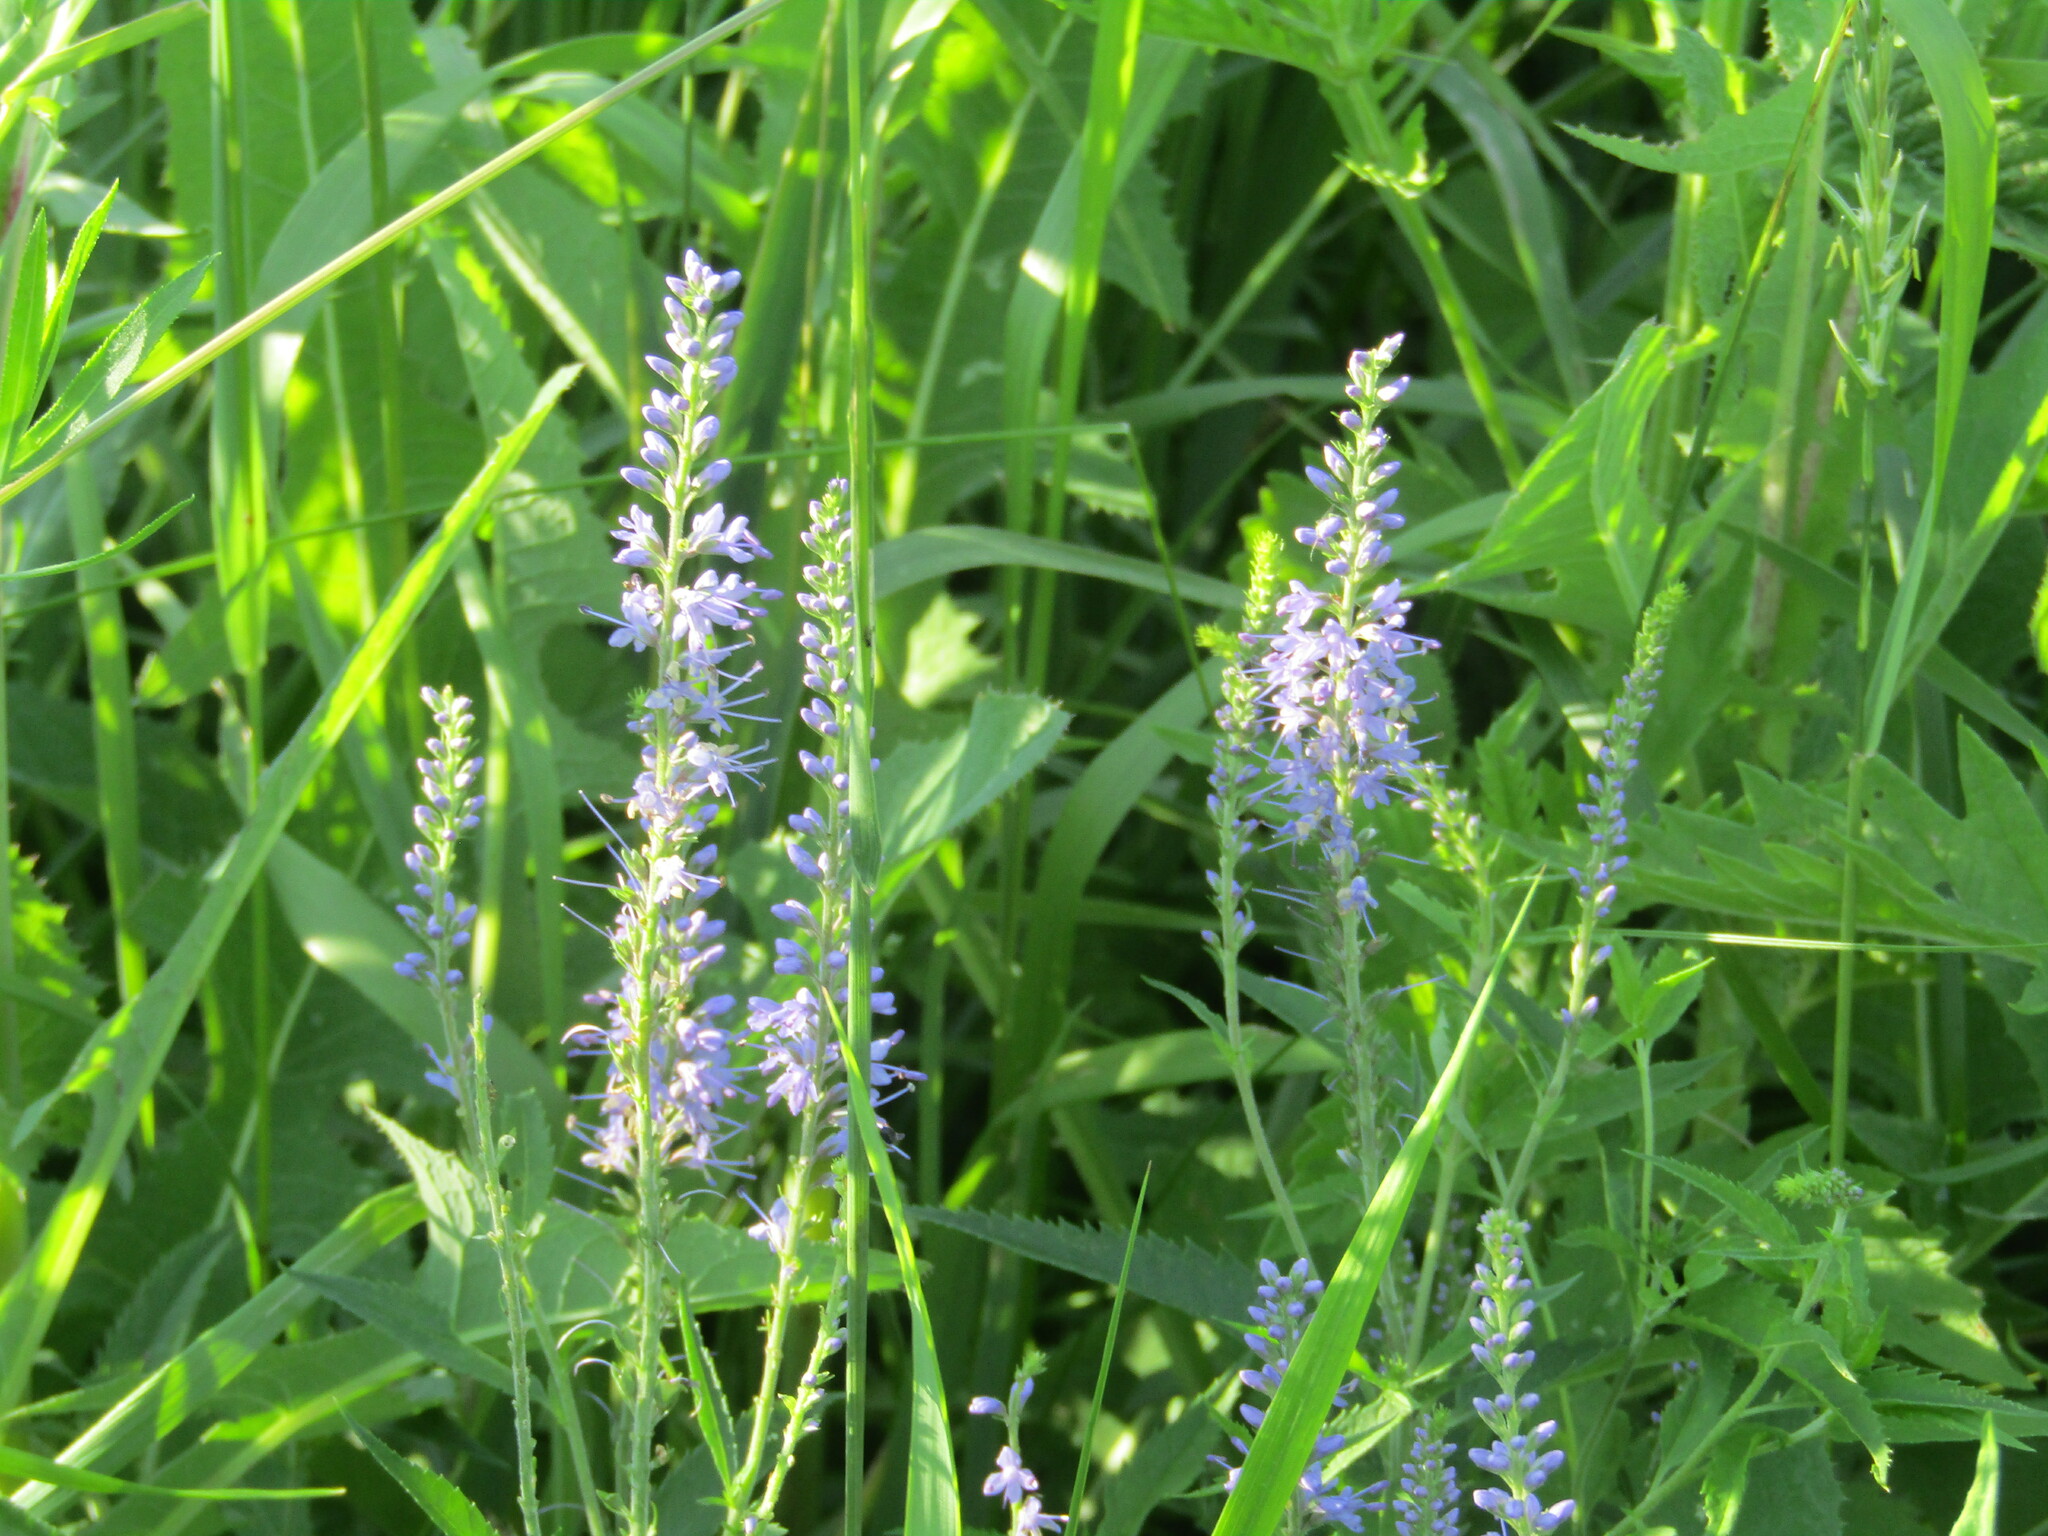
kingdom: Plantae
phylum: Tracheophyta
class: Magnoliopsida
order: Lamiales
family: Plantaginaceae
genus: Veronica
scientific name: Veronica longifolia
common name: Garden speedwell
